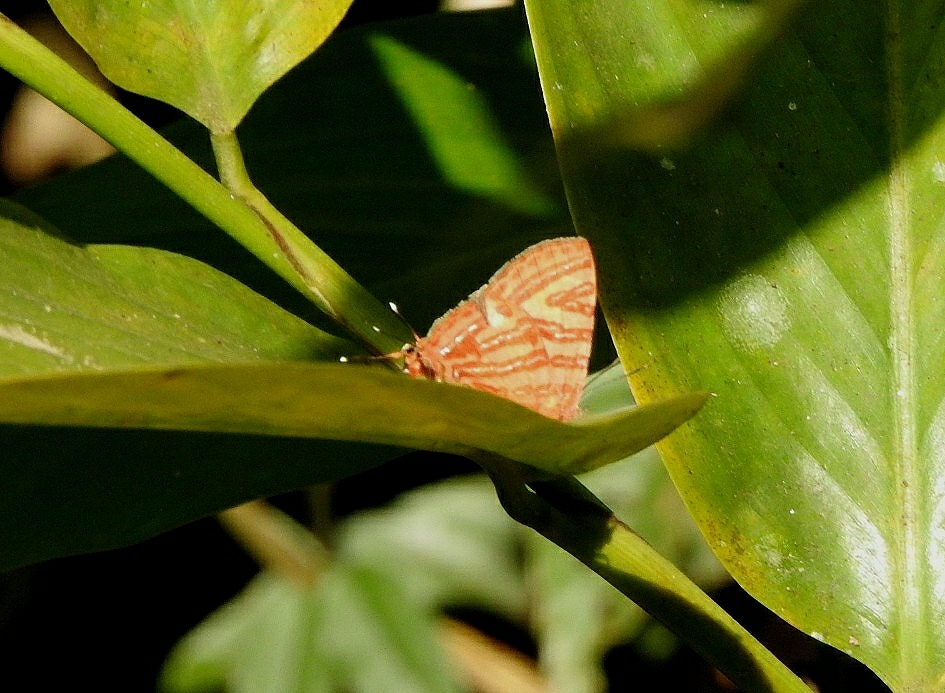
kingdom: Animalia
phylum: Arthropoda
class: Insecta
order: Lepidoptera
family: Lycaenidae
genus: Cigaritis
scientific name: Cigaritis lohita
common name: Long-banded silverline
